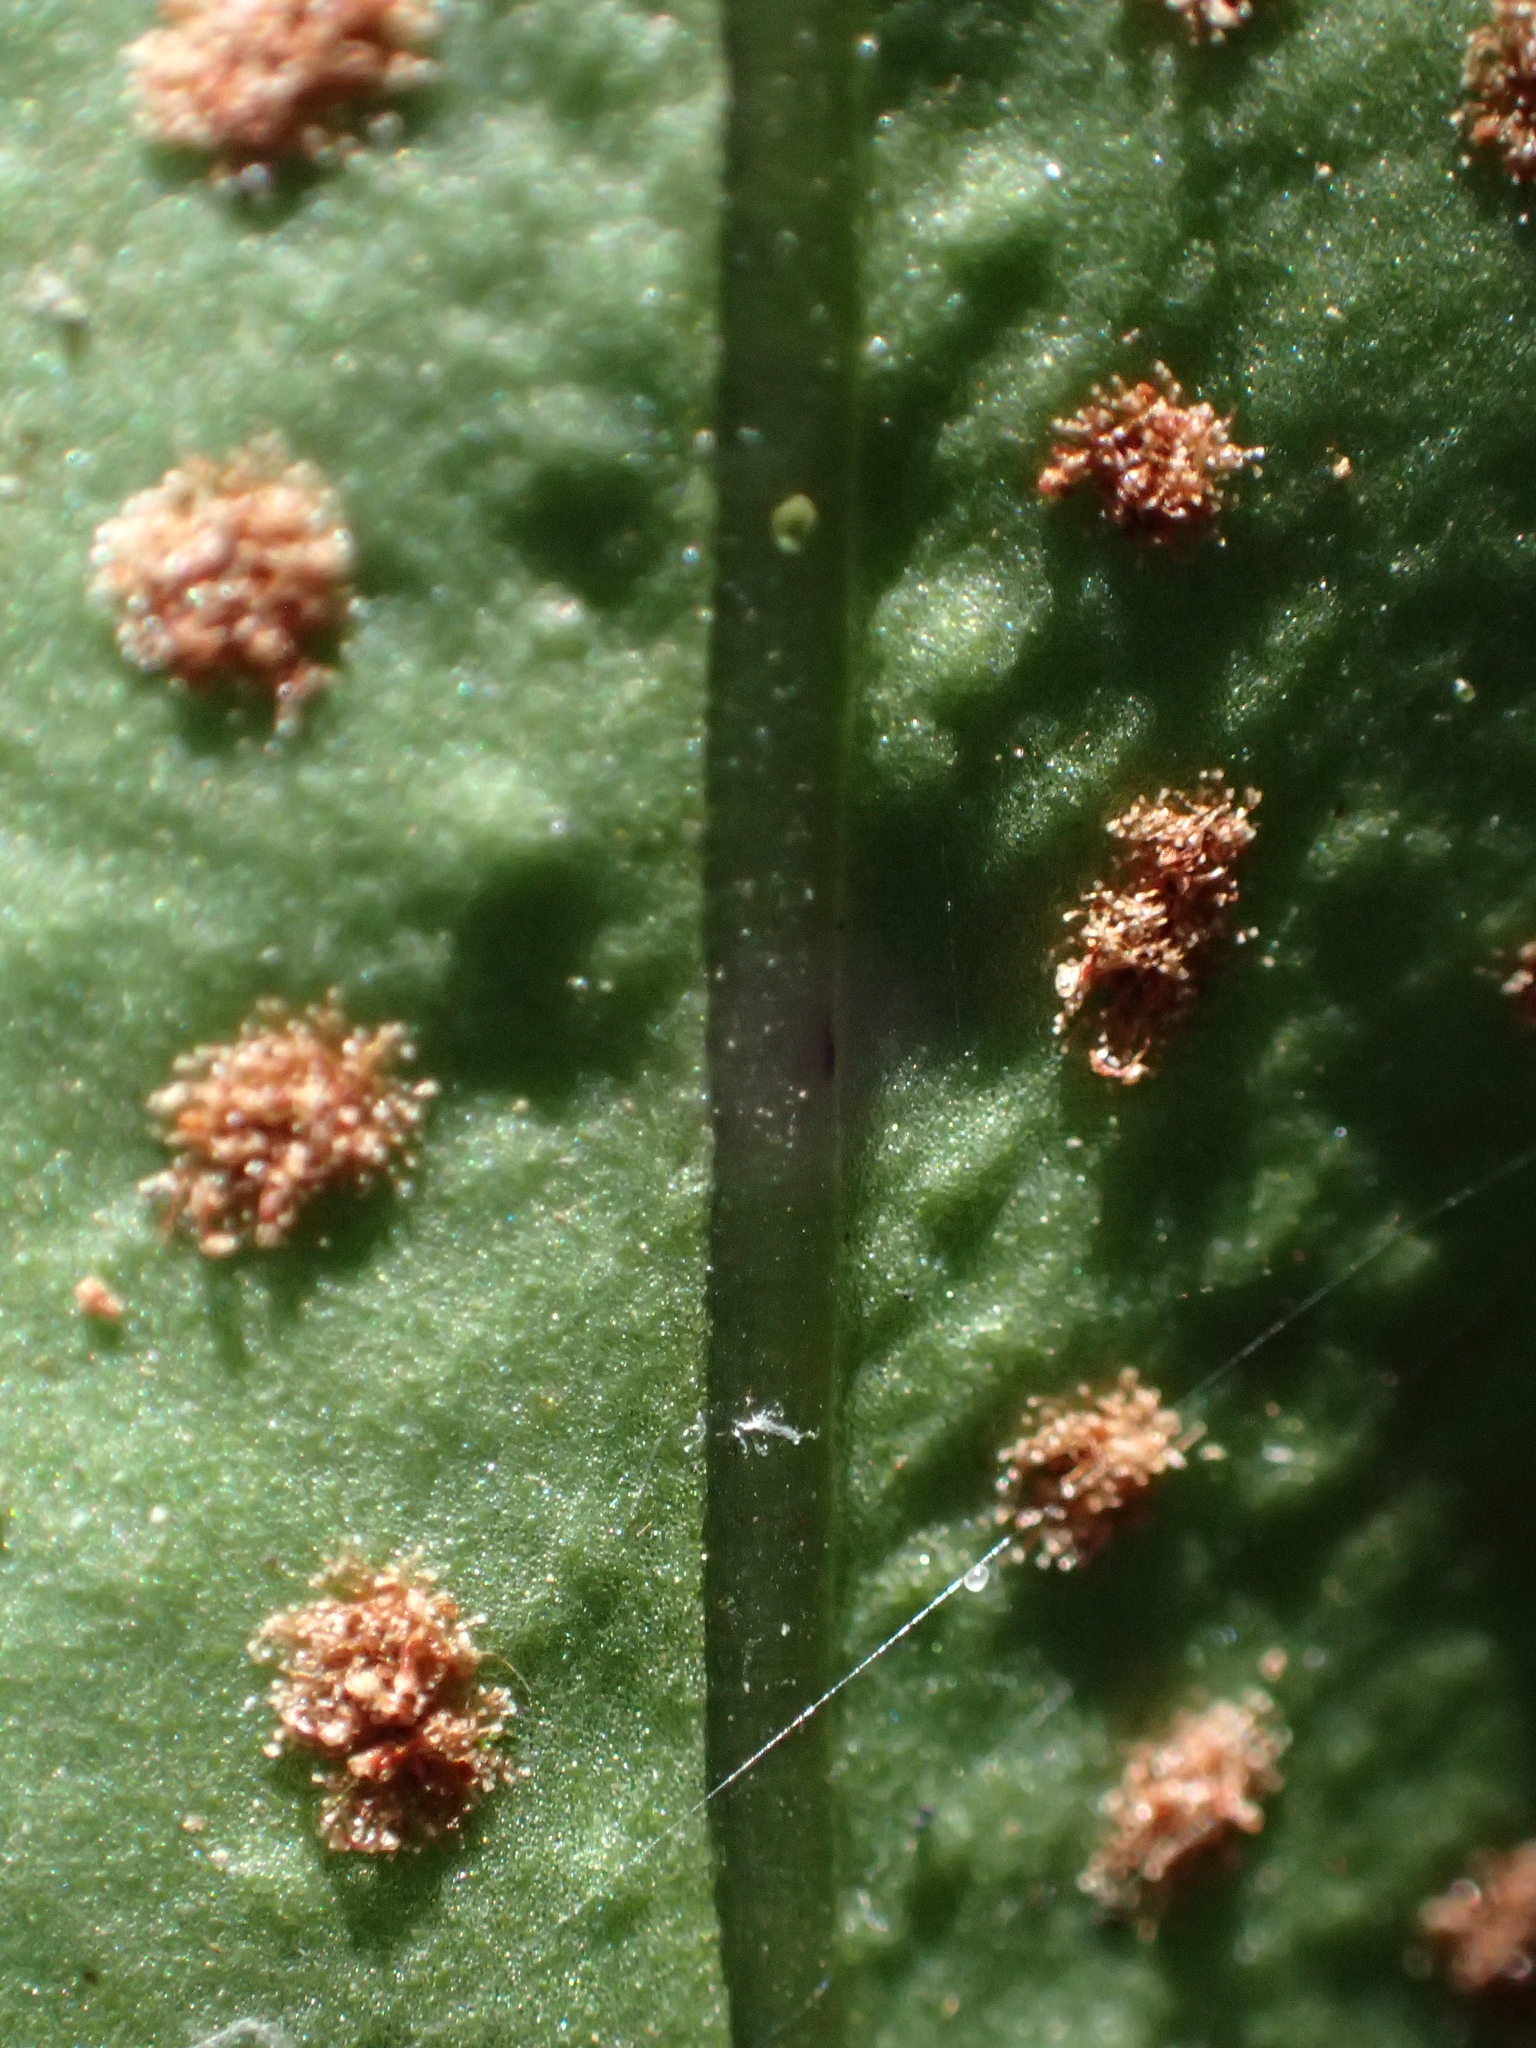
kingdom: Plantae
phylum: Tracheophyta
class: Polypodiopsida
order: Polypodiales
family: Polypodiaceae
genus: Lepisorus
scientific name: Lepisorus superficialis
